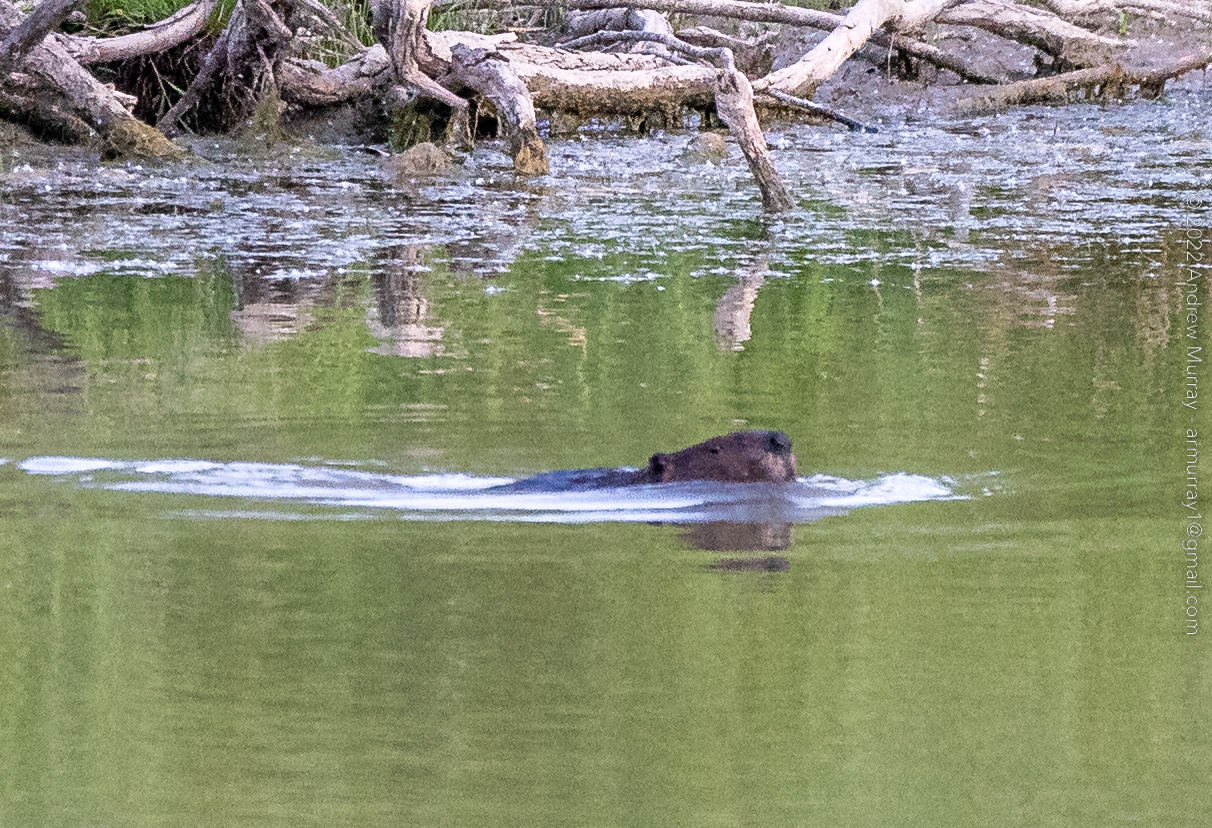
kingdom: Animalia
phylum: Chordata
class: Mammalia
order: Rodentia
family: Castoridae
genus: Castor
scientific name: Castor canadensis
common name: American beaver
